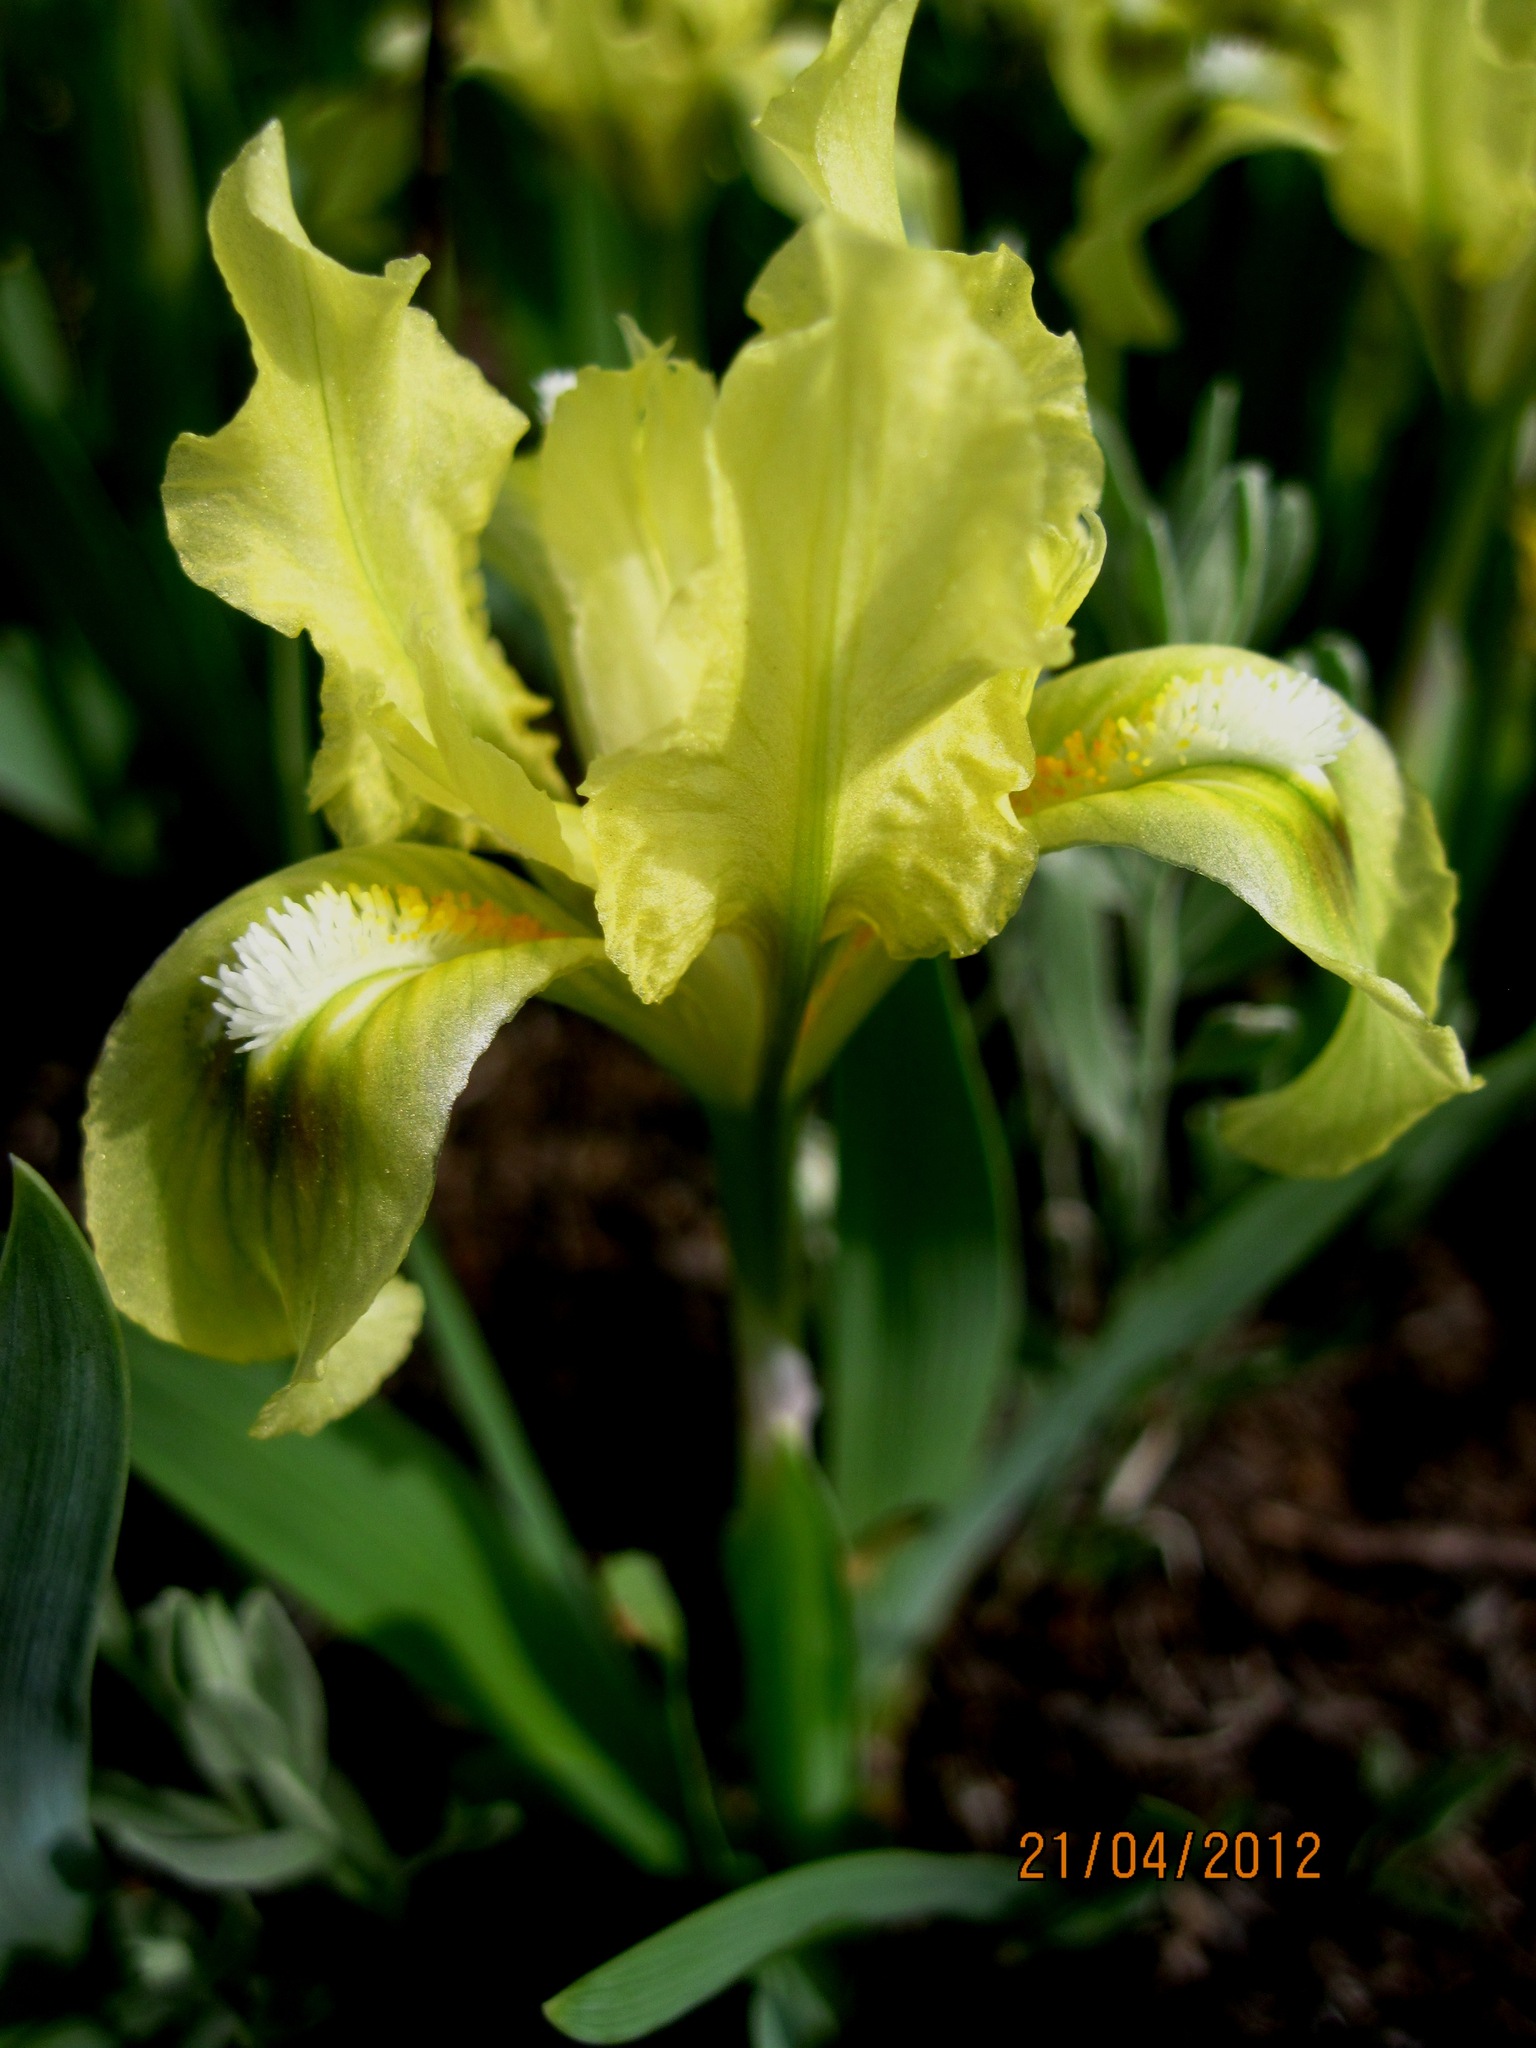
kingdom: Plantae
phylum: Tracheophyta
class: Liliopsida
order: Asparagales
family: Iridaceae
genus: Iris
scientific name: Iris pumila
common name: Dwarf iris
